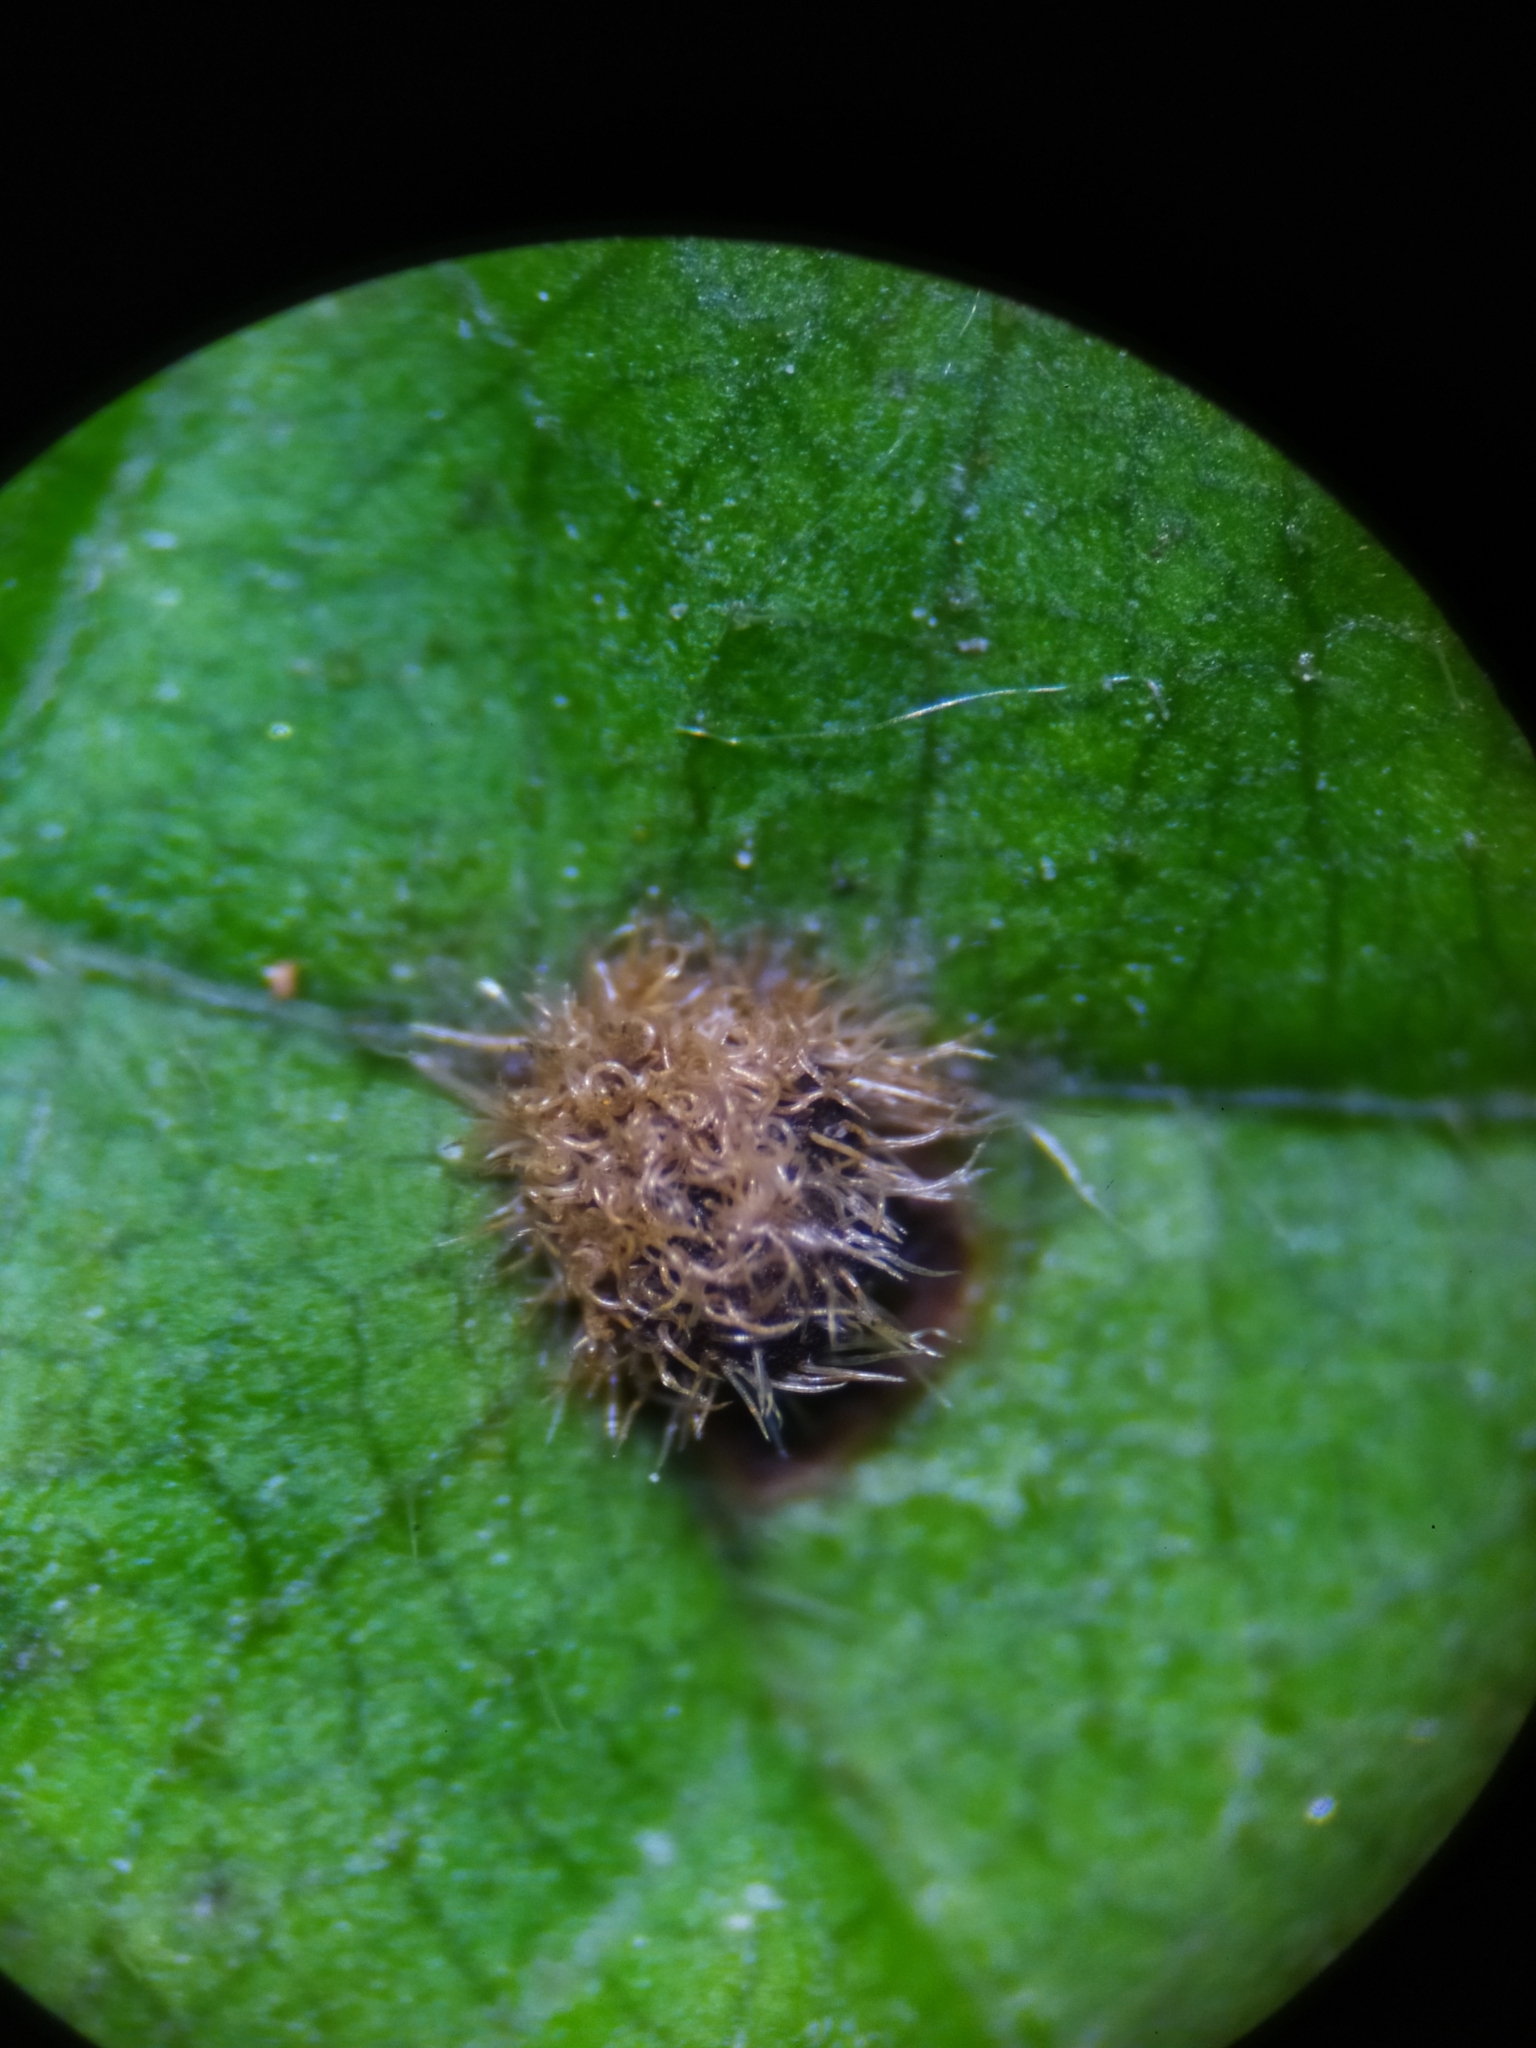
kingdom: Animalia
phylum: Arthropoda
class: Arachnida
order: Trombidiformes
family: Eriophyidae
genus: Eriophyes
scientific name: Eriophyes exilis
